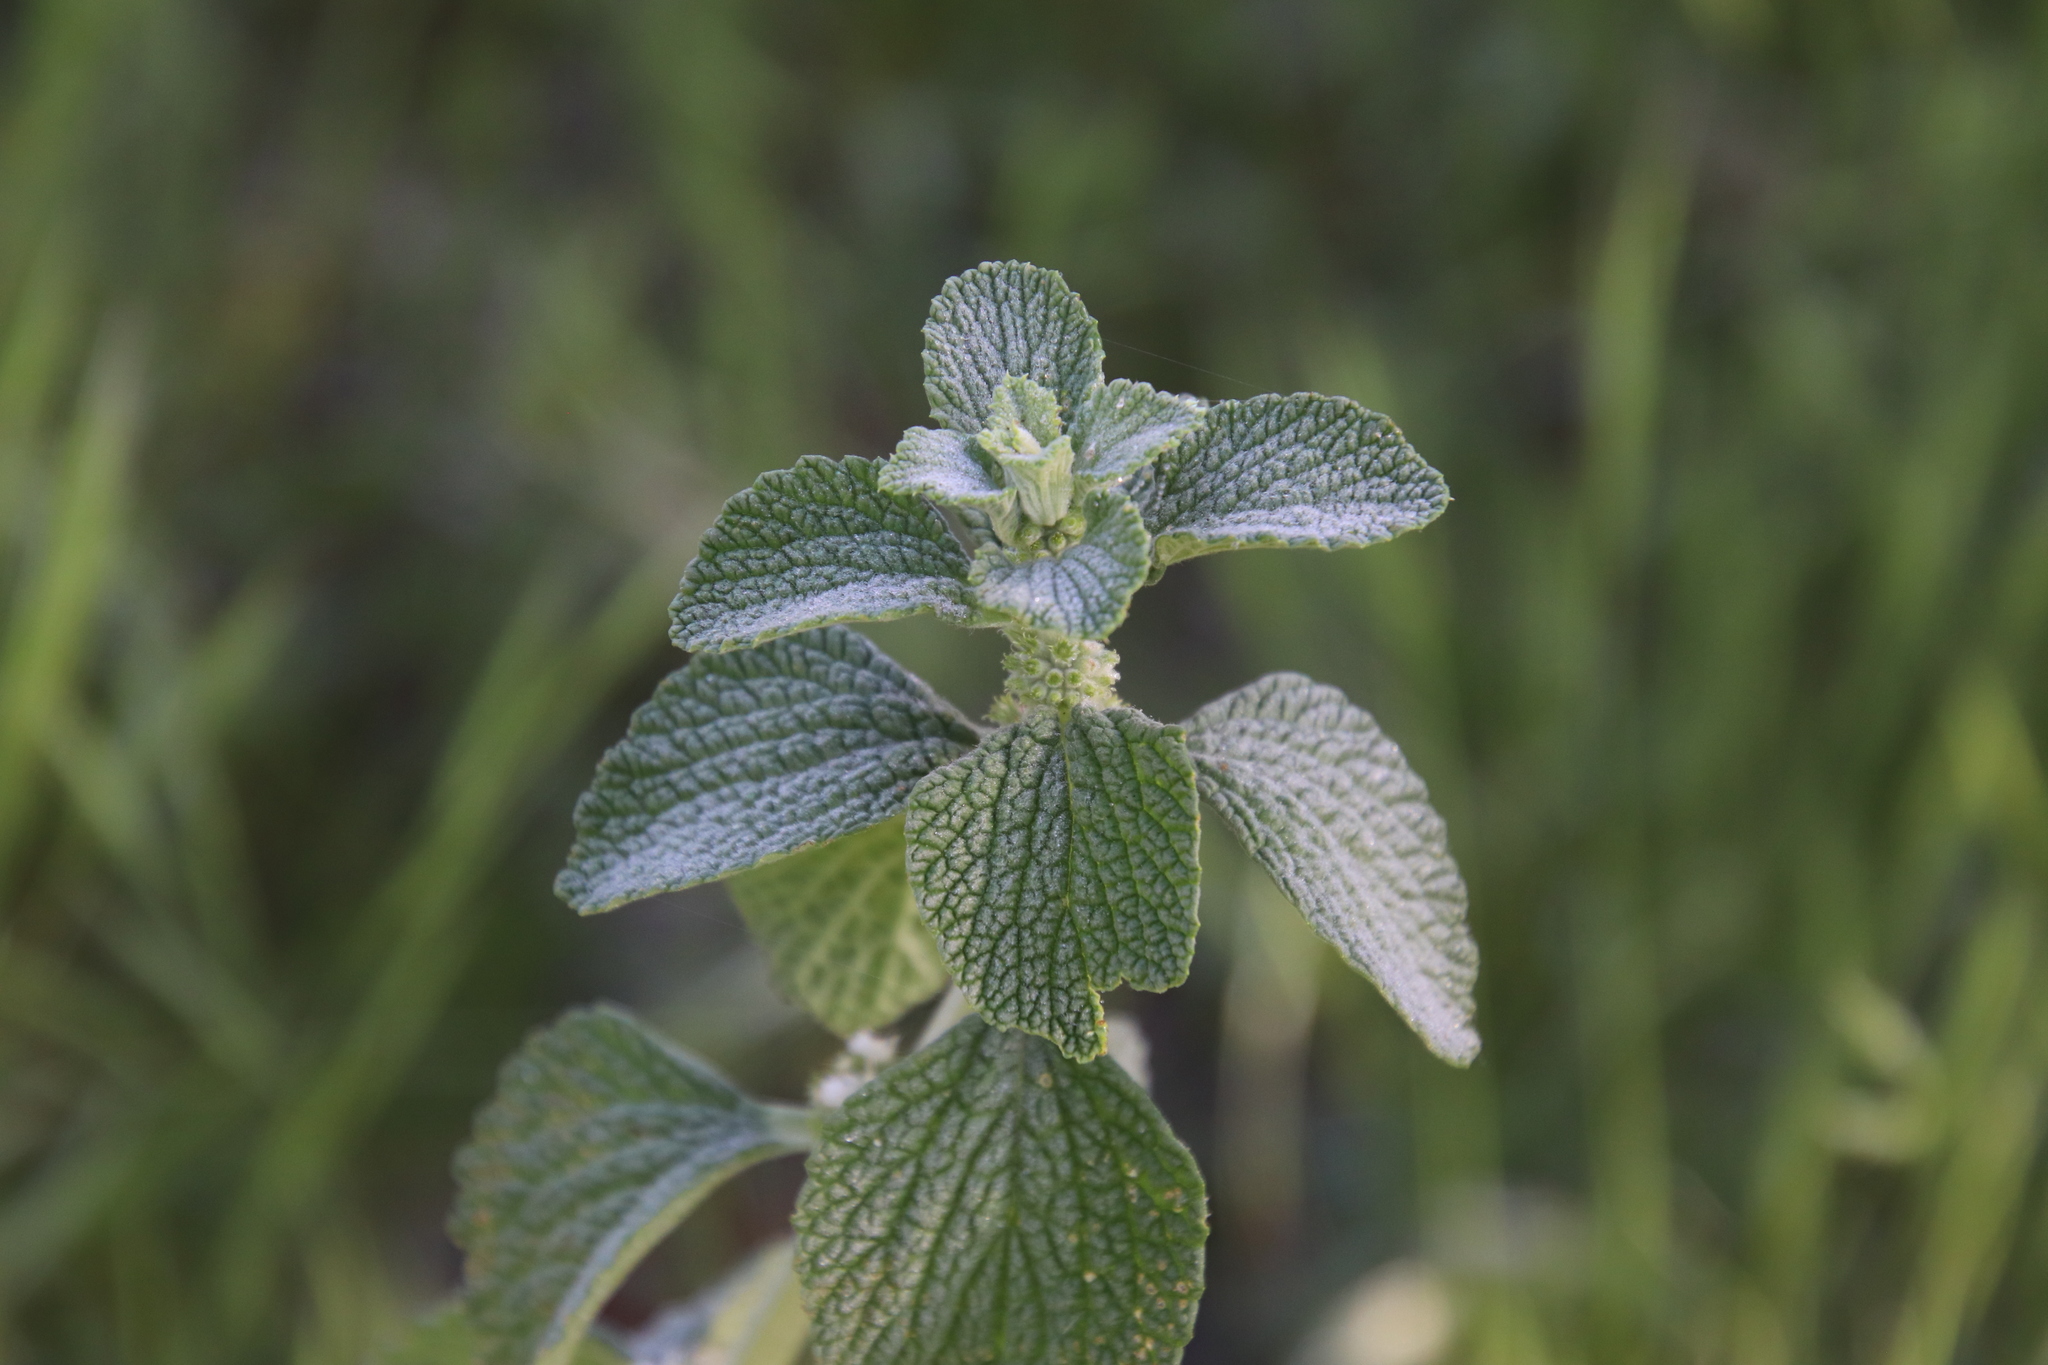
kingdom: Plantae
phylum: Tracheophyta
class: Magnoliopsida
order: Lamiales
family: Lamiaceae
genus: Marrubium
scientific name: Marrubium vulgare
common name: Horehound
